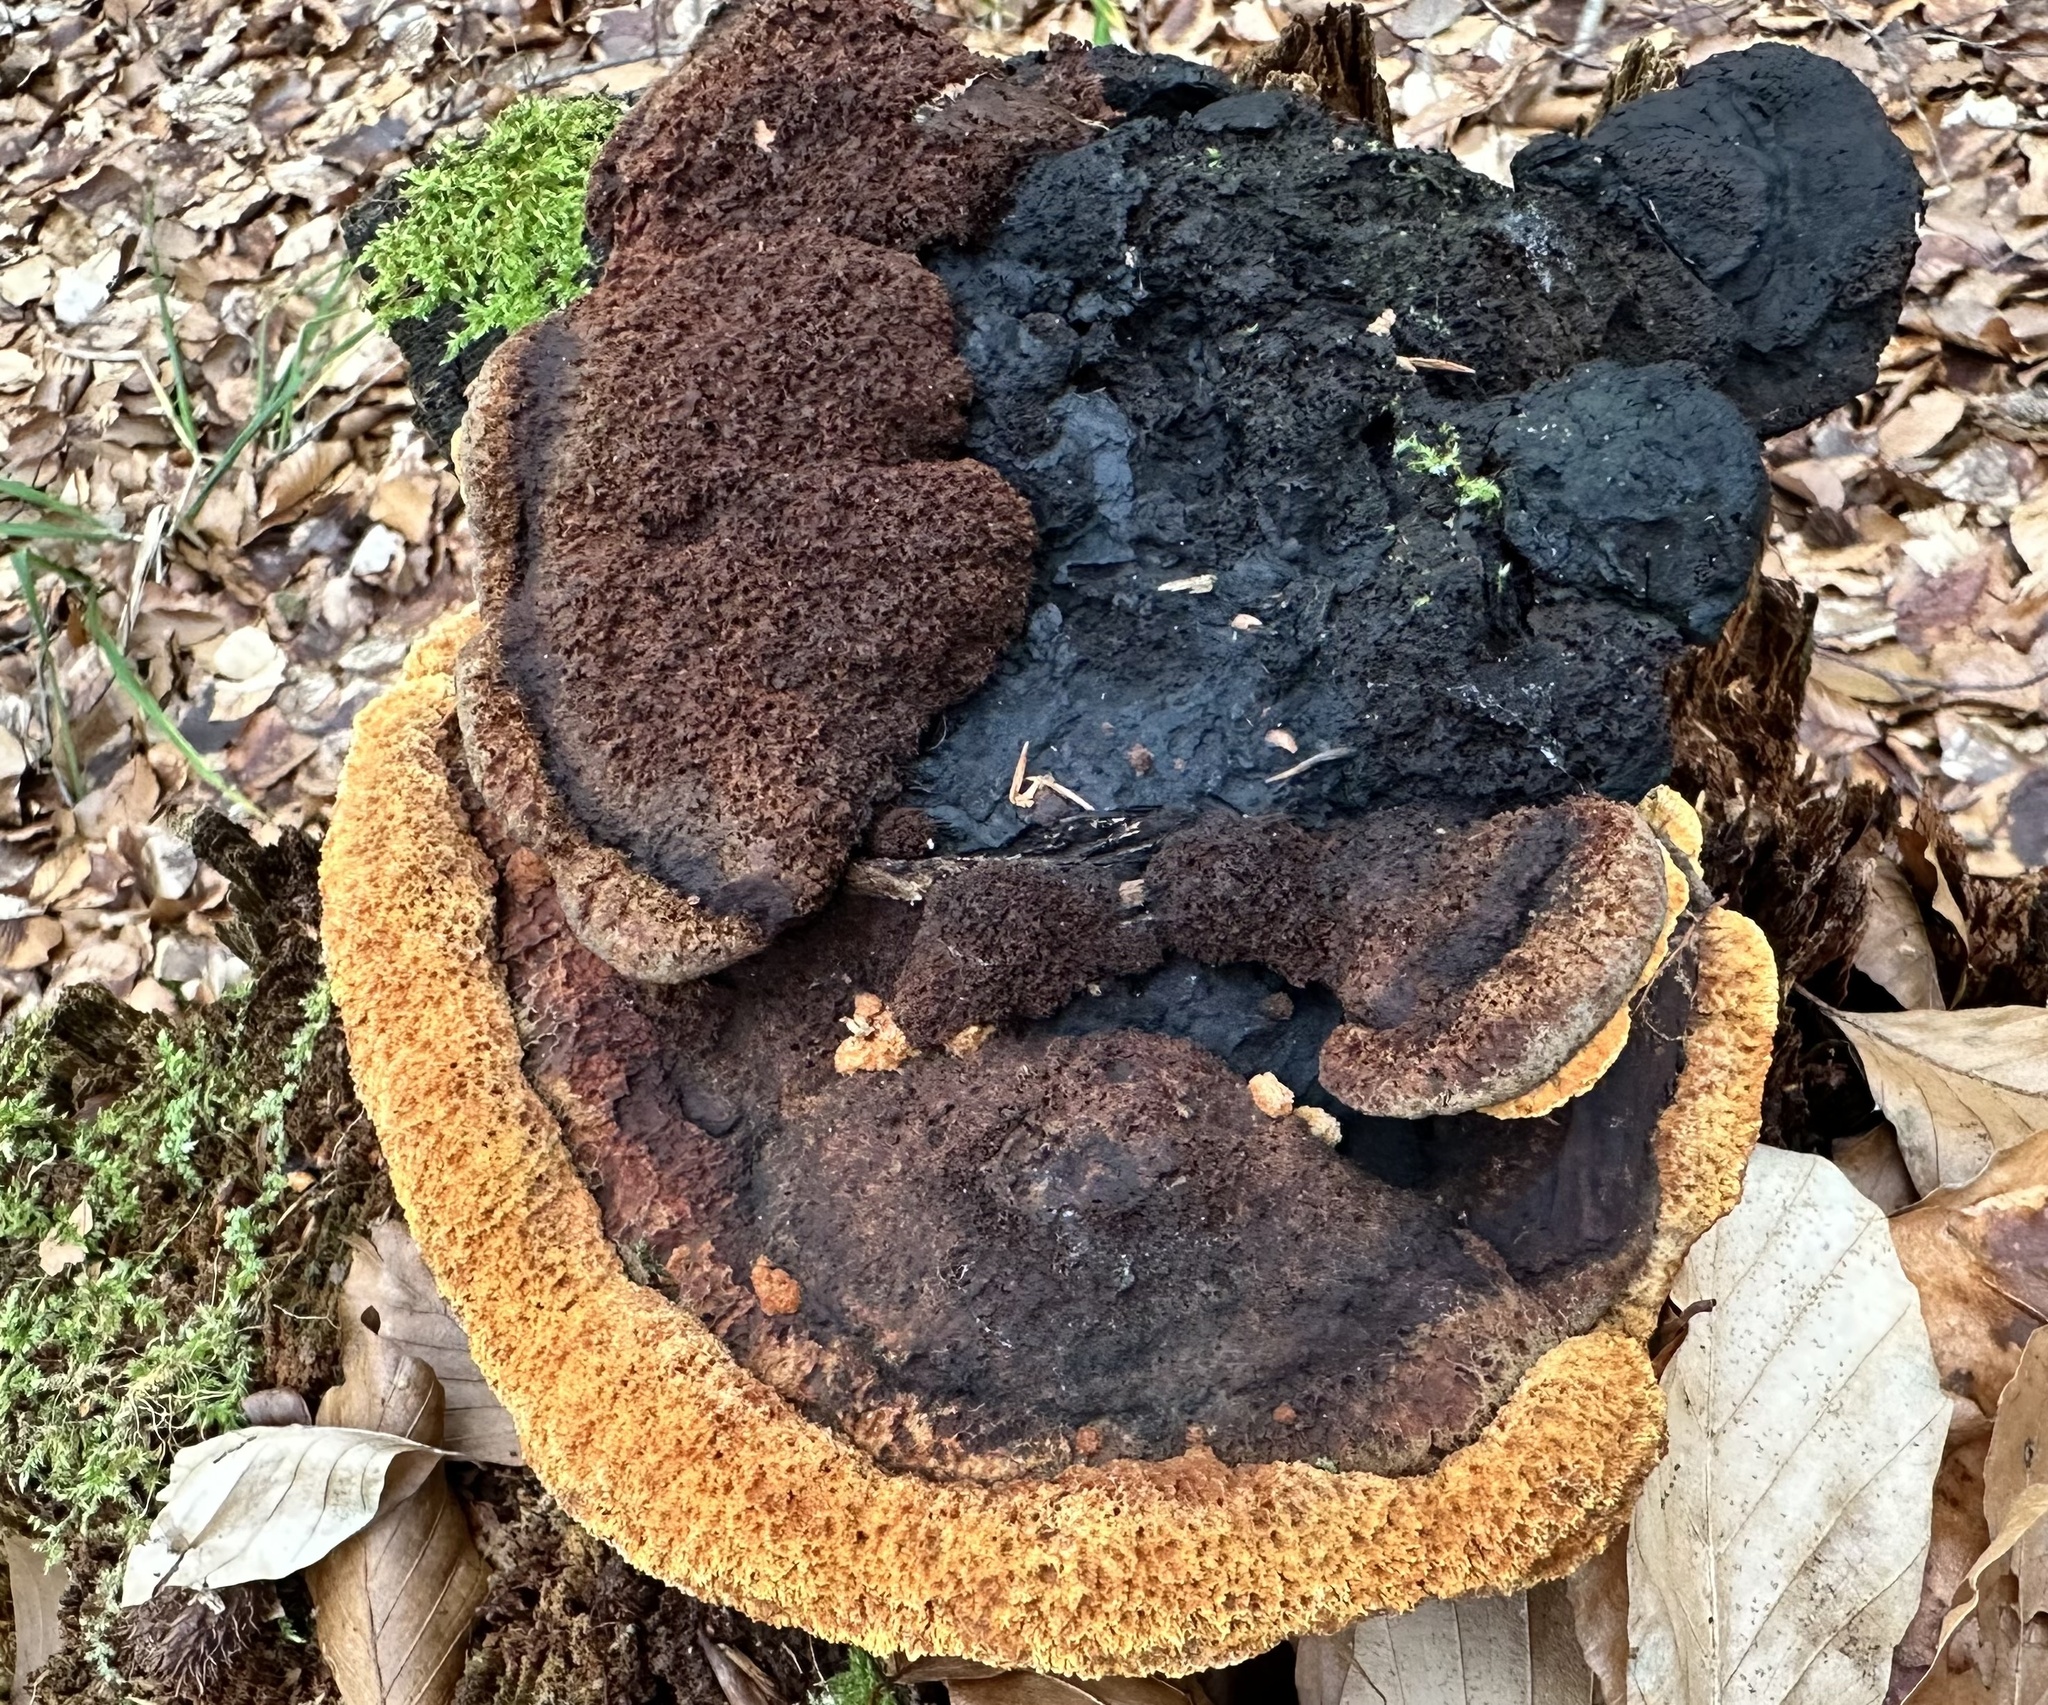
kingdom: Fungi
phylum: Basidiomycota
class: Agaricomycetes
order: Polyporales
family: Laetiporaceae
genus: Phaeolus
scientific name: Phaeolus schweinitzii
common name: Dyer's mazegill
